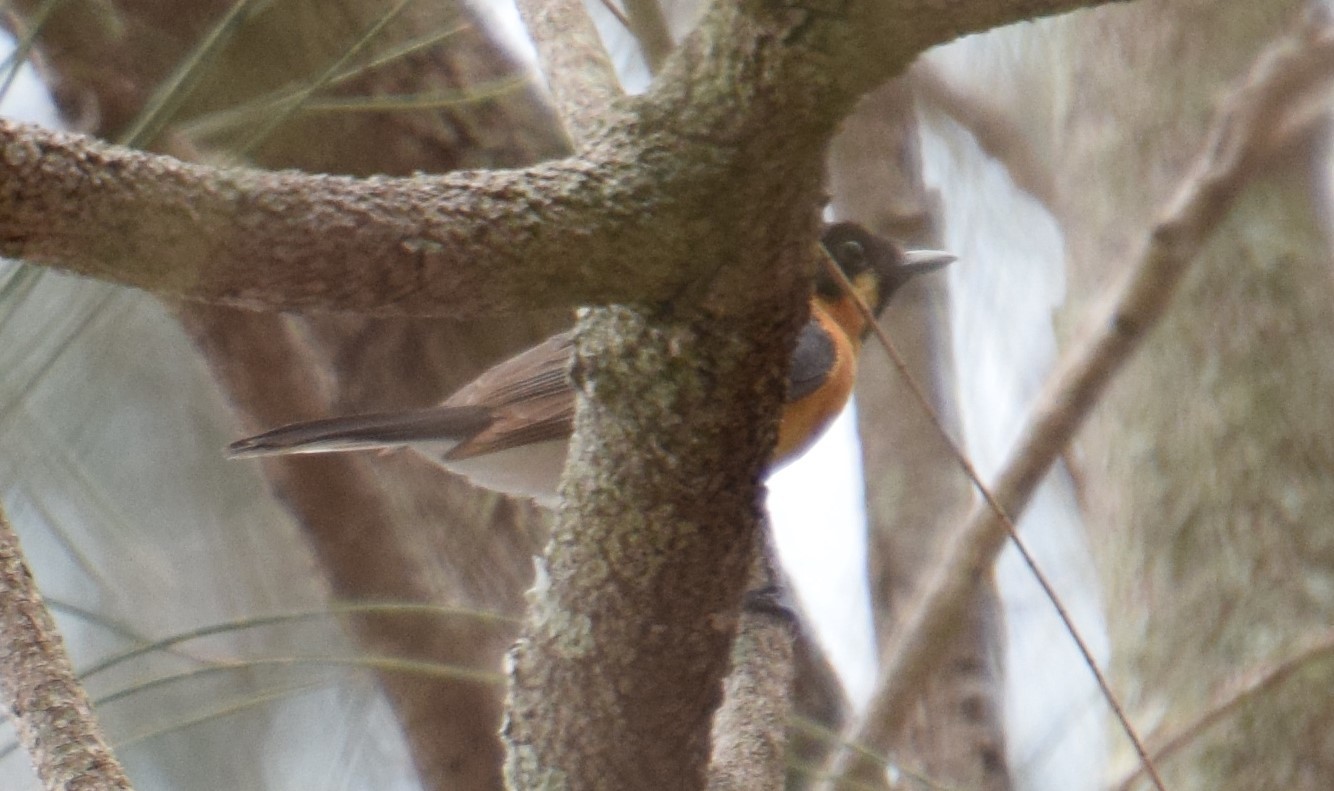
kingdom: Animalia
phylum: Chordata
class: Aves
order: Passeriformes
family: Monarchidae
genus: Symposiachrus
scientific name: Symposiachrus trivirgatus
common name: Spectacled monarch
